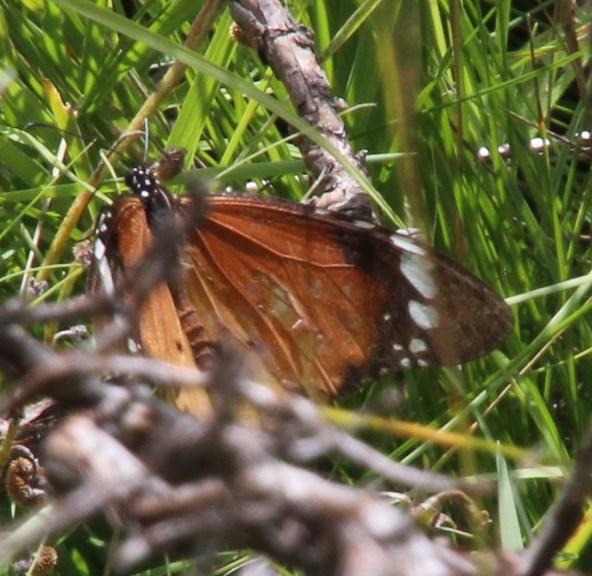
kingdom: Animalia
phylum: Arthropoda
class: Insecta
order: Lepidoptera
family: Nymphalidae
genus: Danaus
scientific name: Danaus chrysippus
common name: Plain tiger
